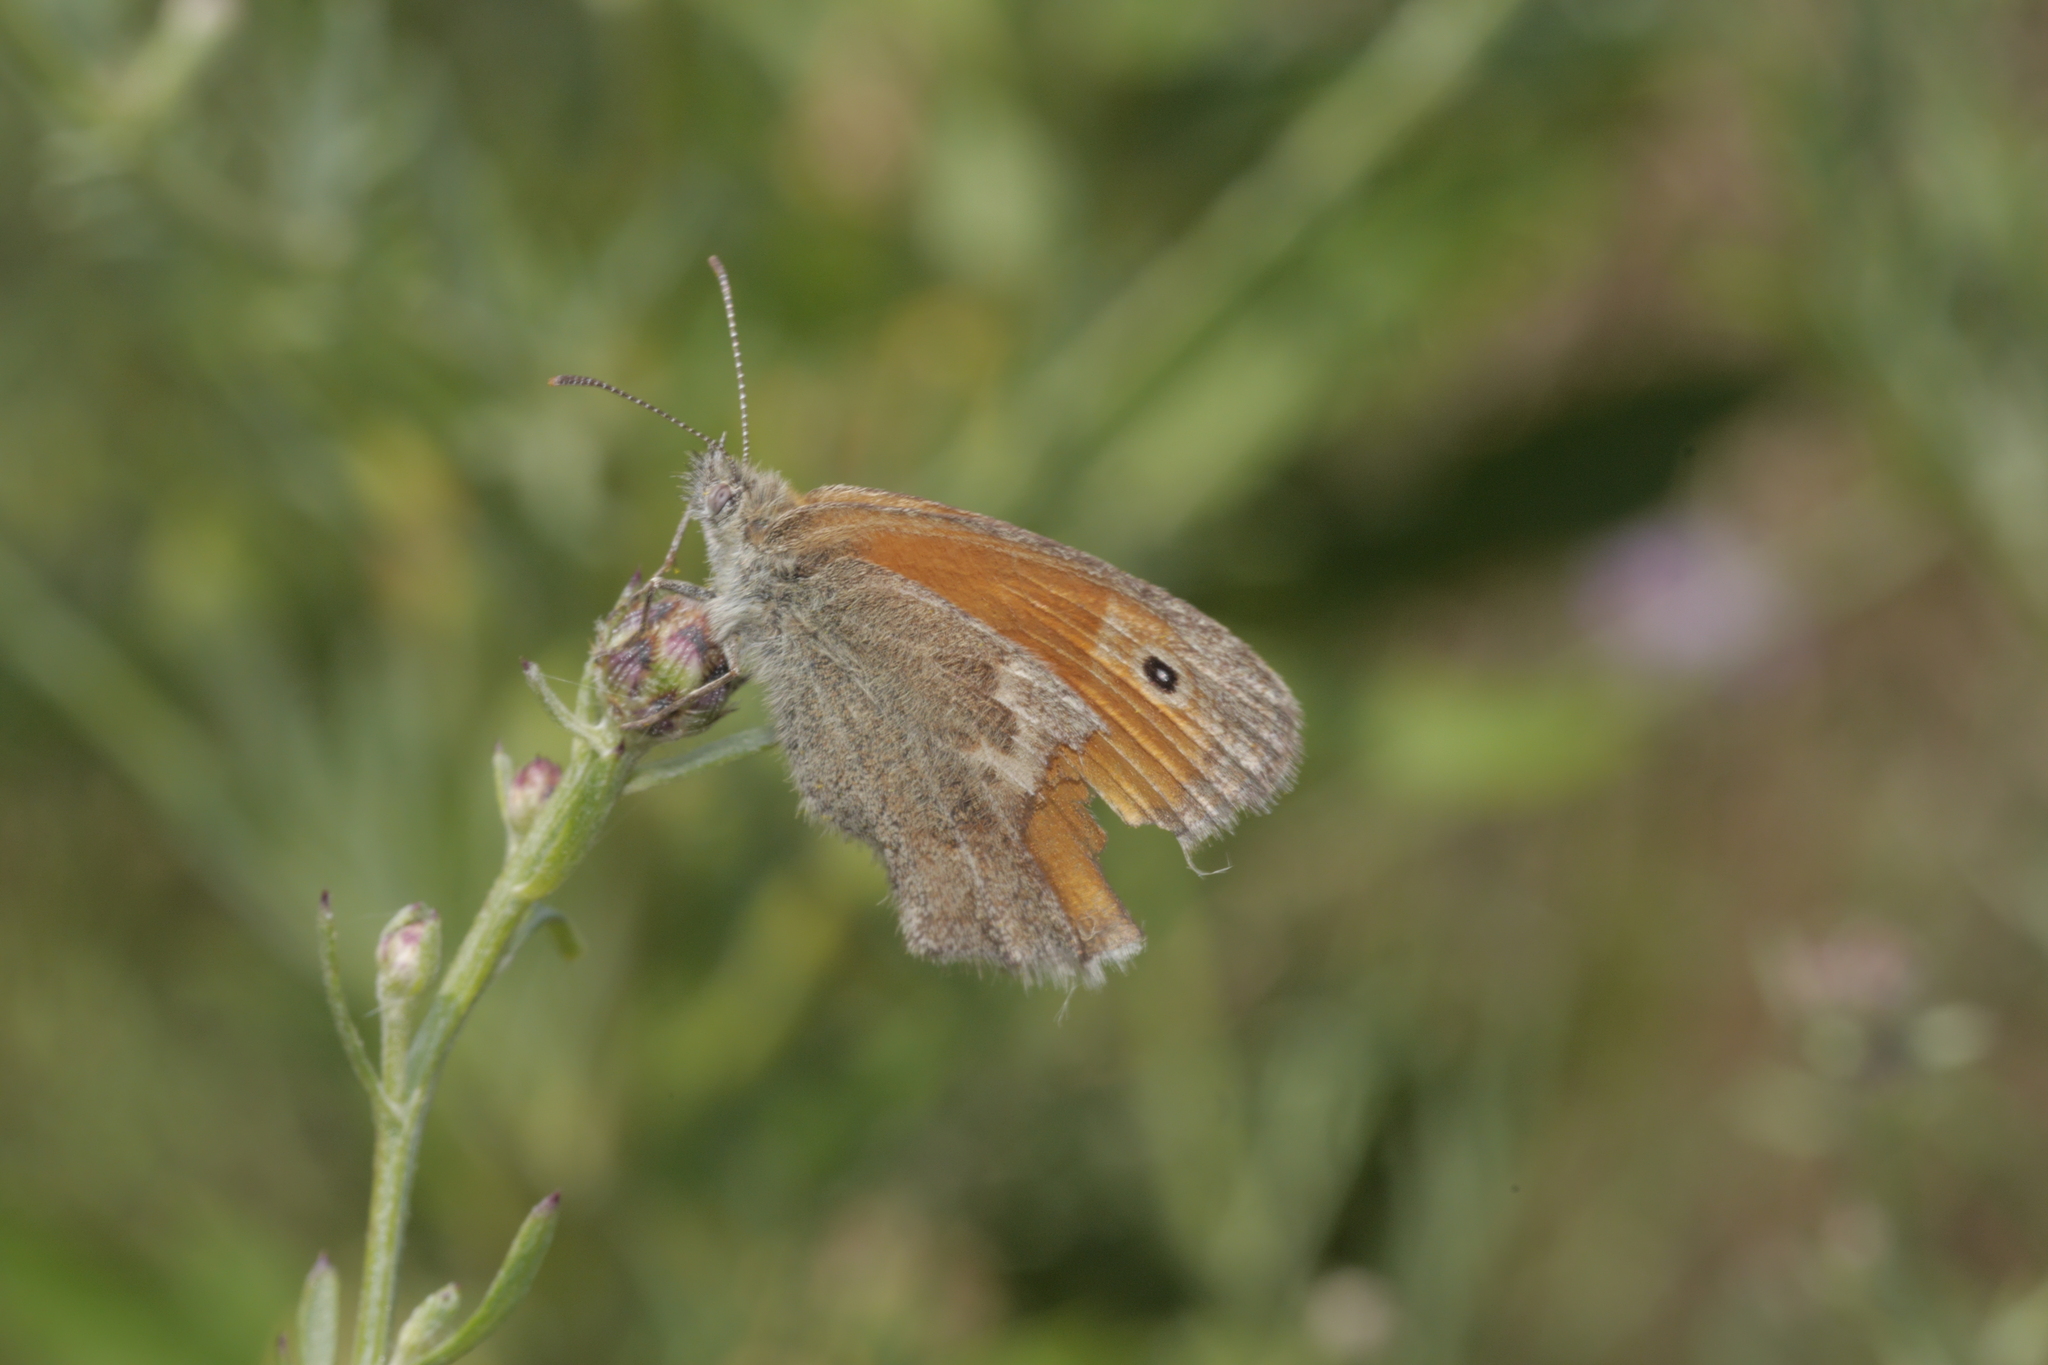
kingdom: Animalia
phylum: Arthropoda
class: Insecta
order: Lepidoptera
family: Nymphalidae
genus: Coenonympha
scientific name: Coenonympha pamphilus
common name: Small heath
